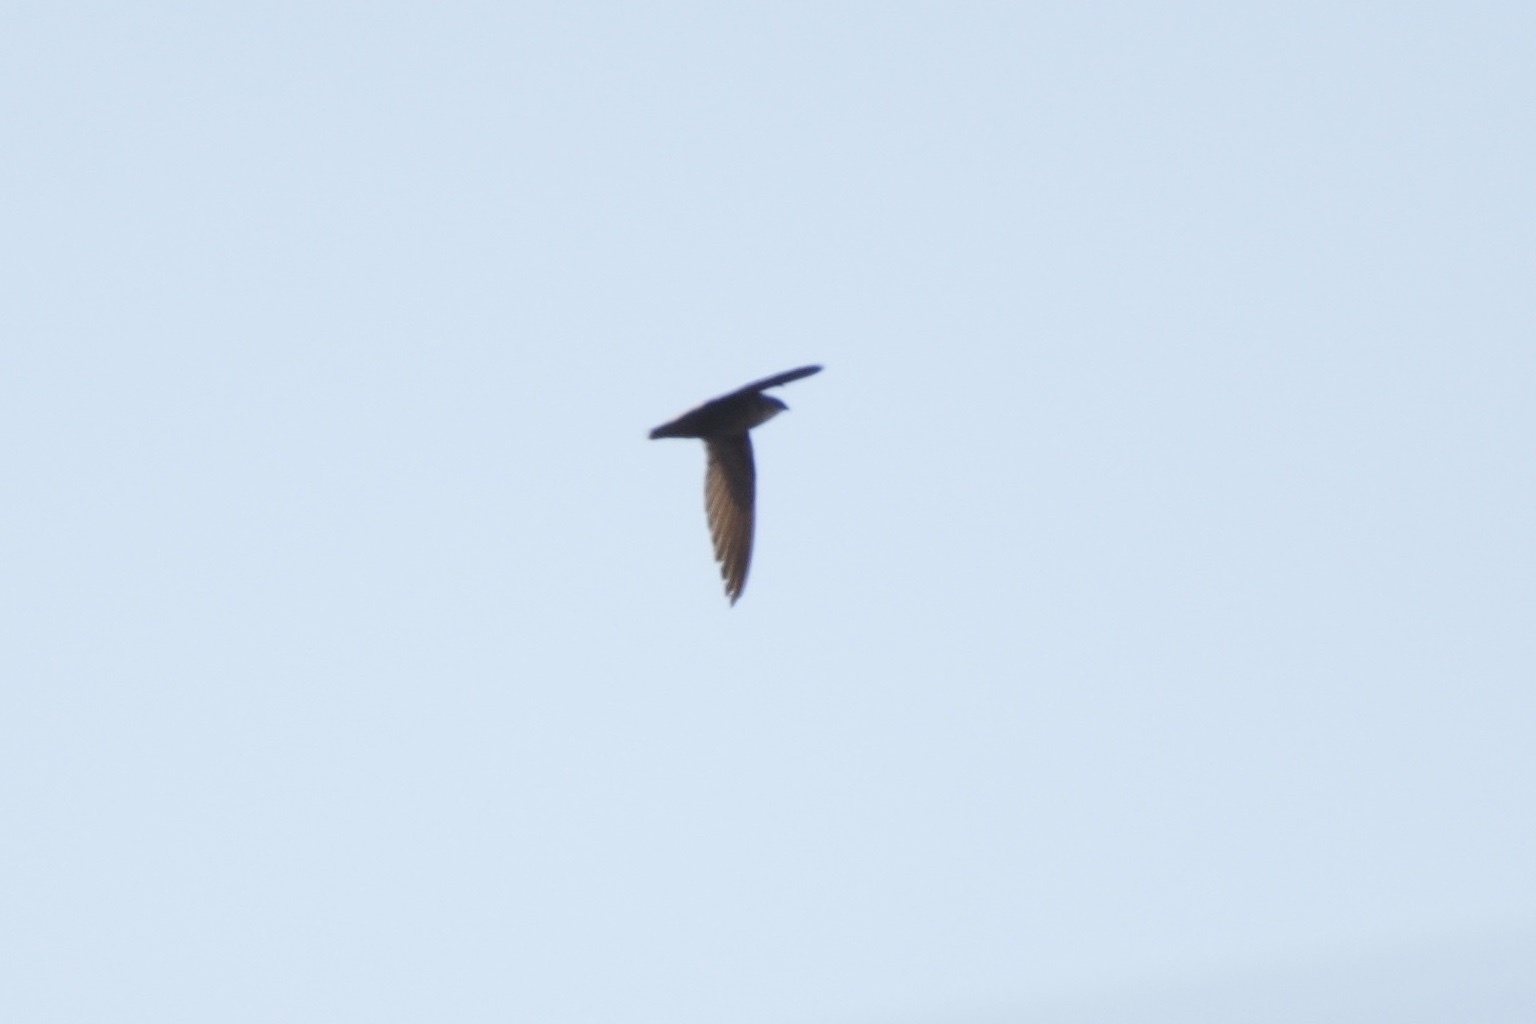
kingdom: Animalia
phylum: Chordata
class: Aves
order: Apodiformes
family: Apodidae
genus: Chaetura
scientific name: Chaetura pelagica
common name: Chimney swift
